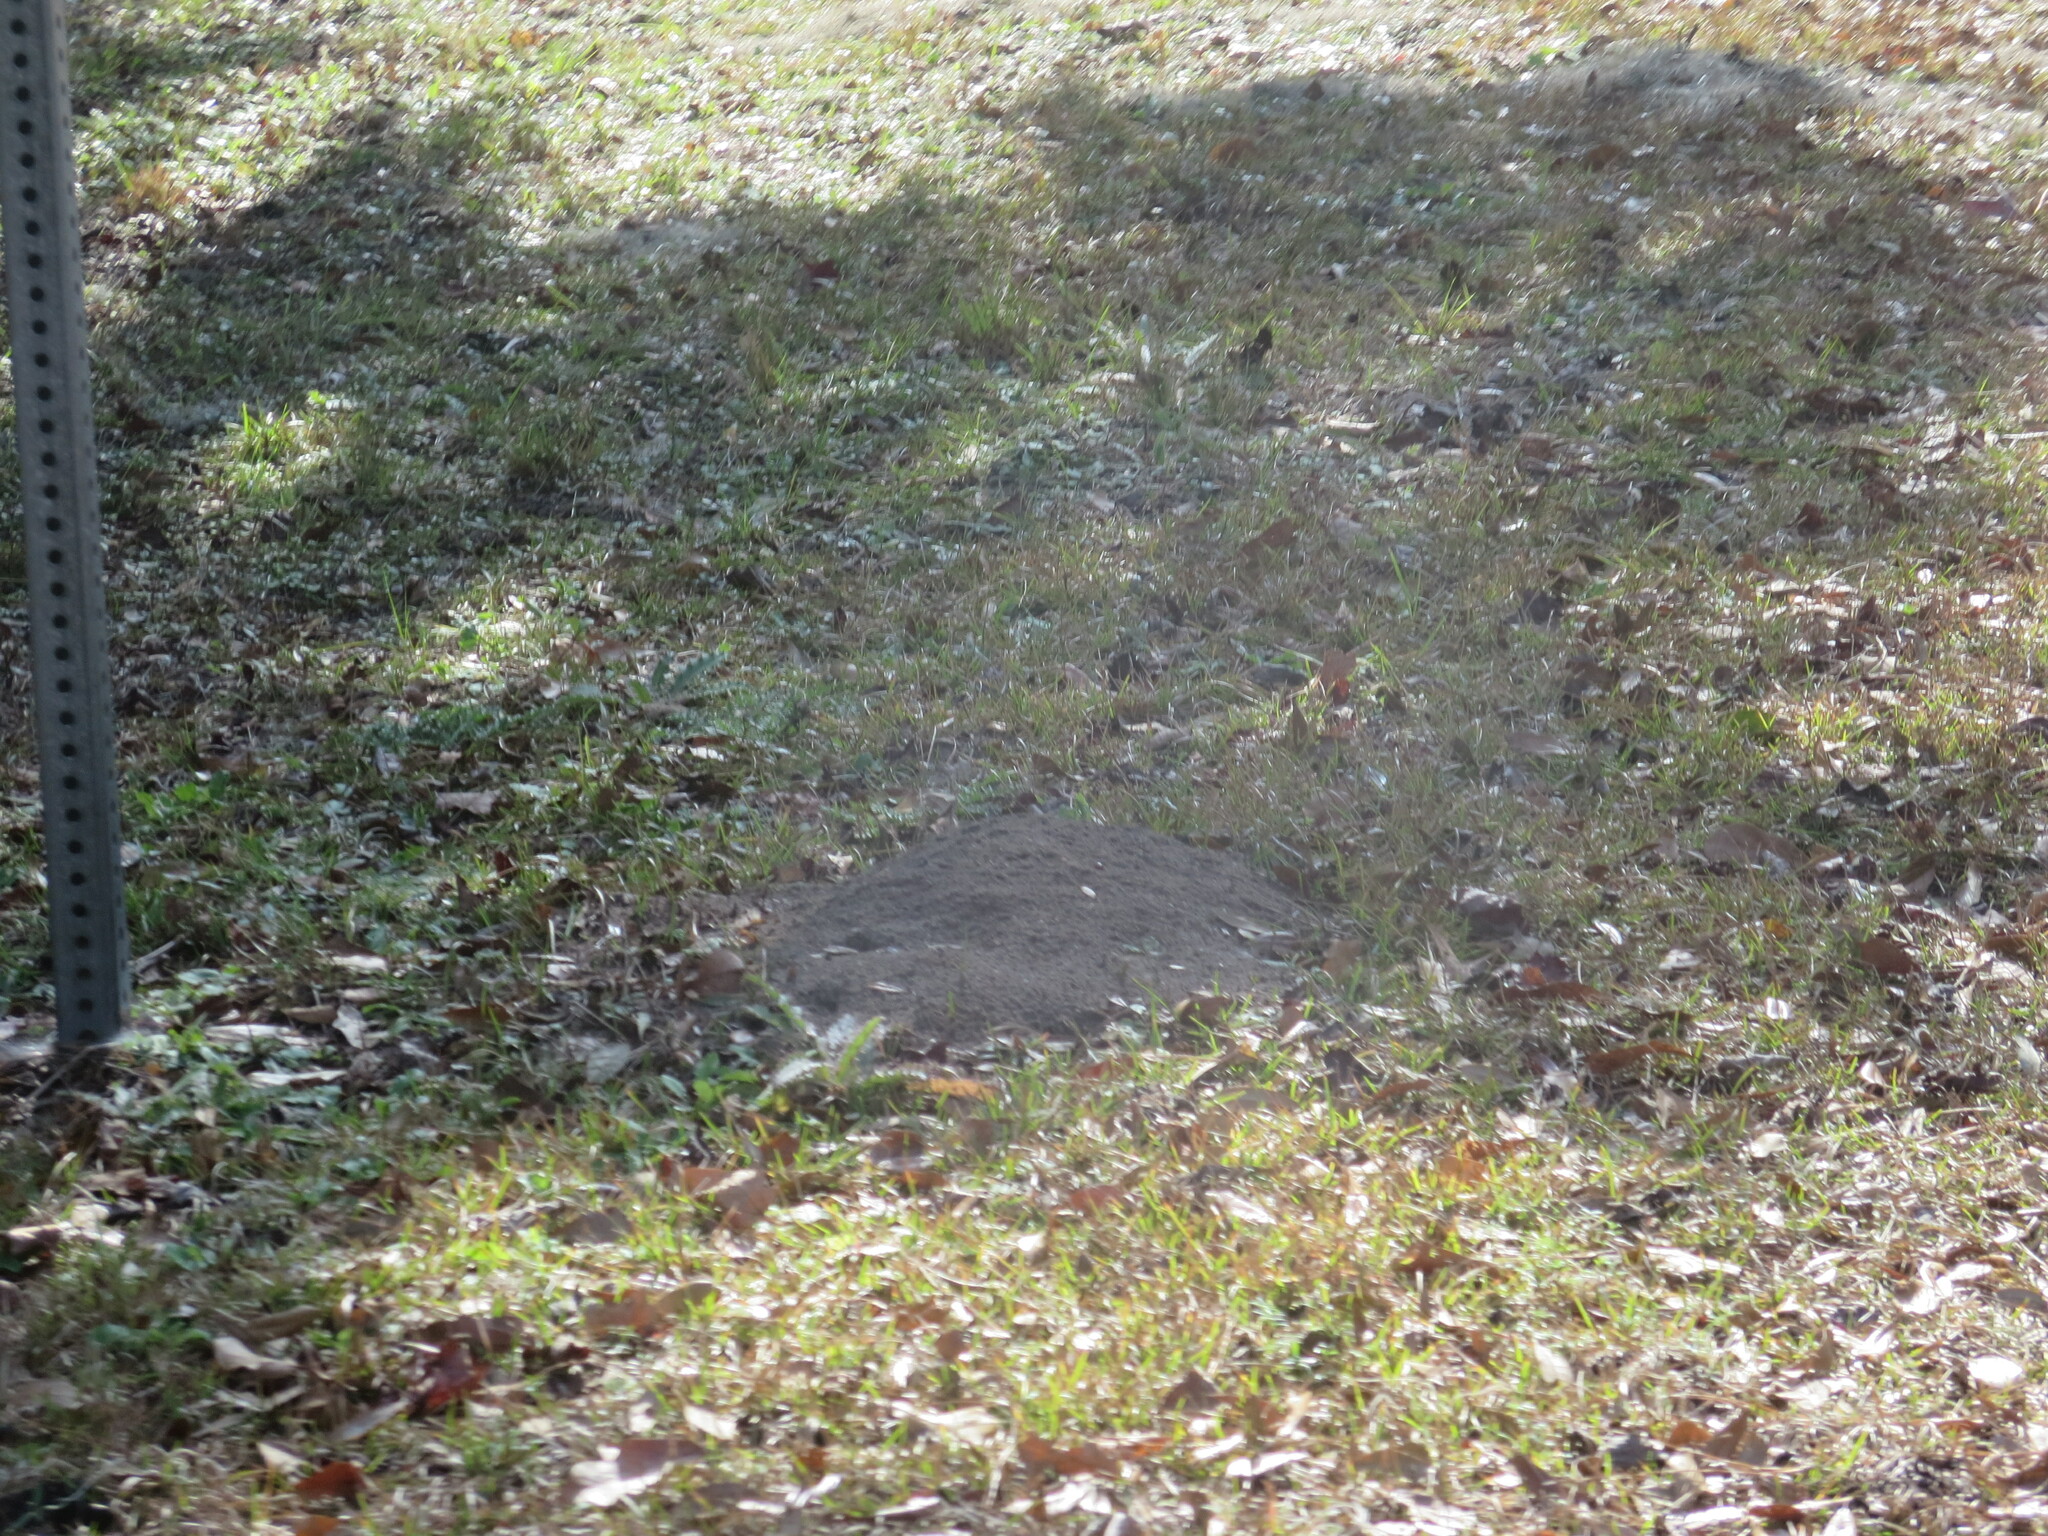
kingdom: Animalia
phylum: Arthropoda
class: Insecta
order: Hymenoptera
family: Formicidae
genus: Solenopsis
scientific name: Solenopsis invicta
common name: Red imported fire ant
